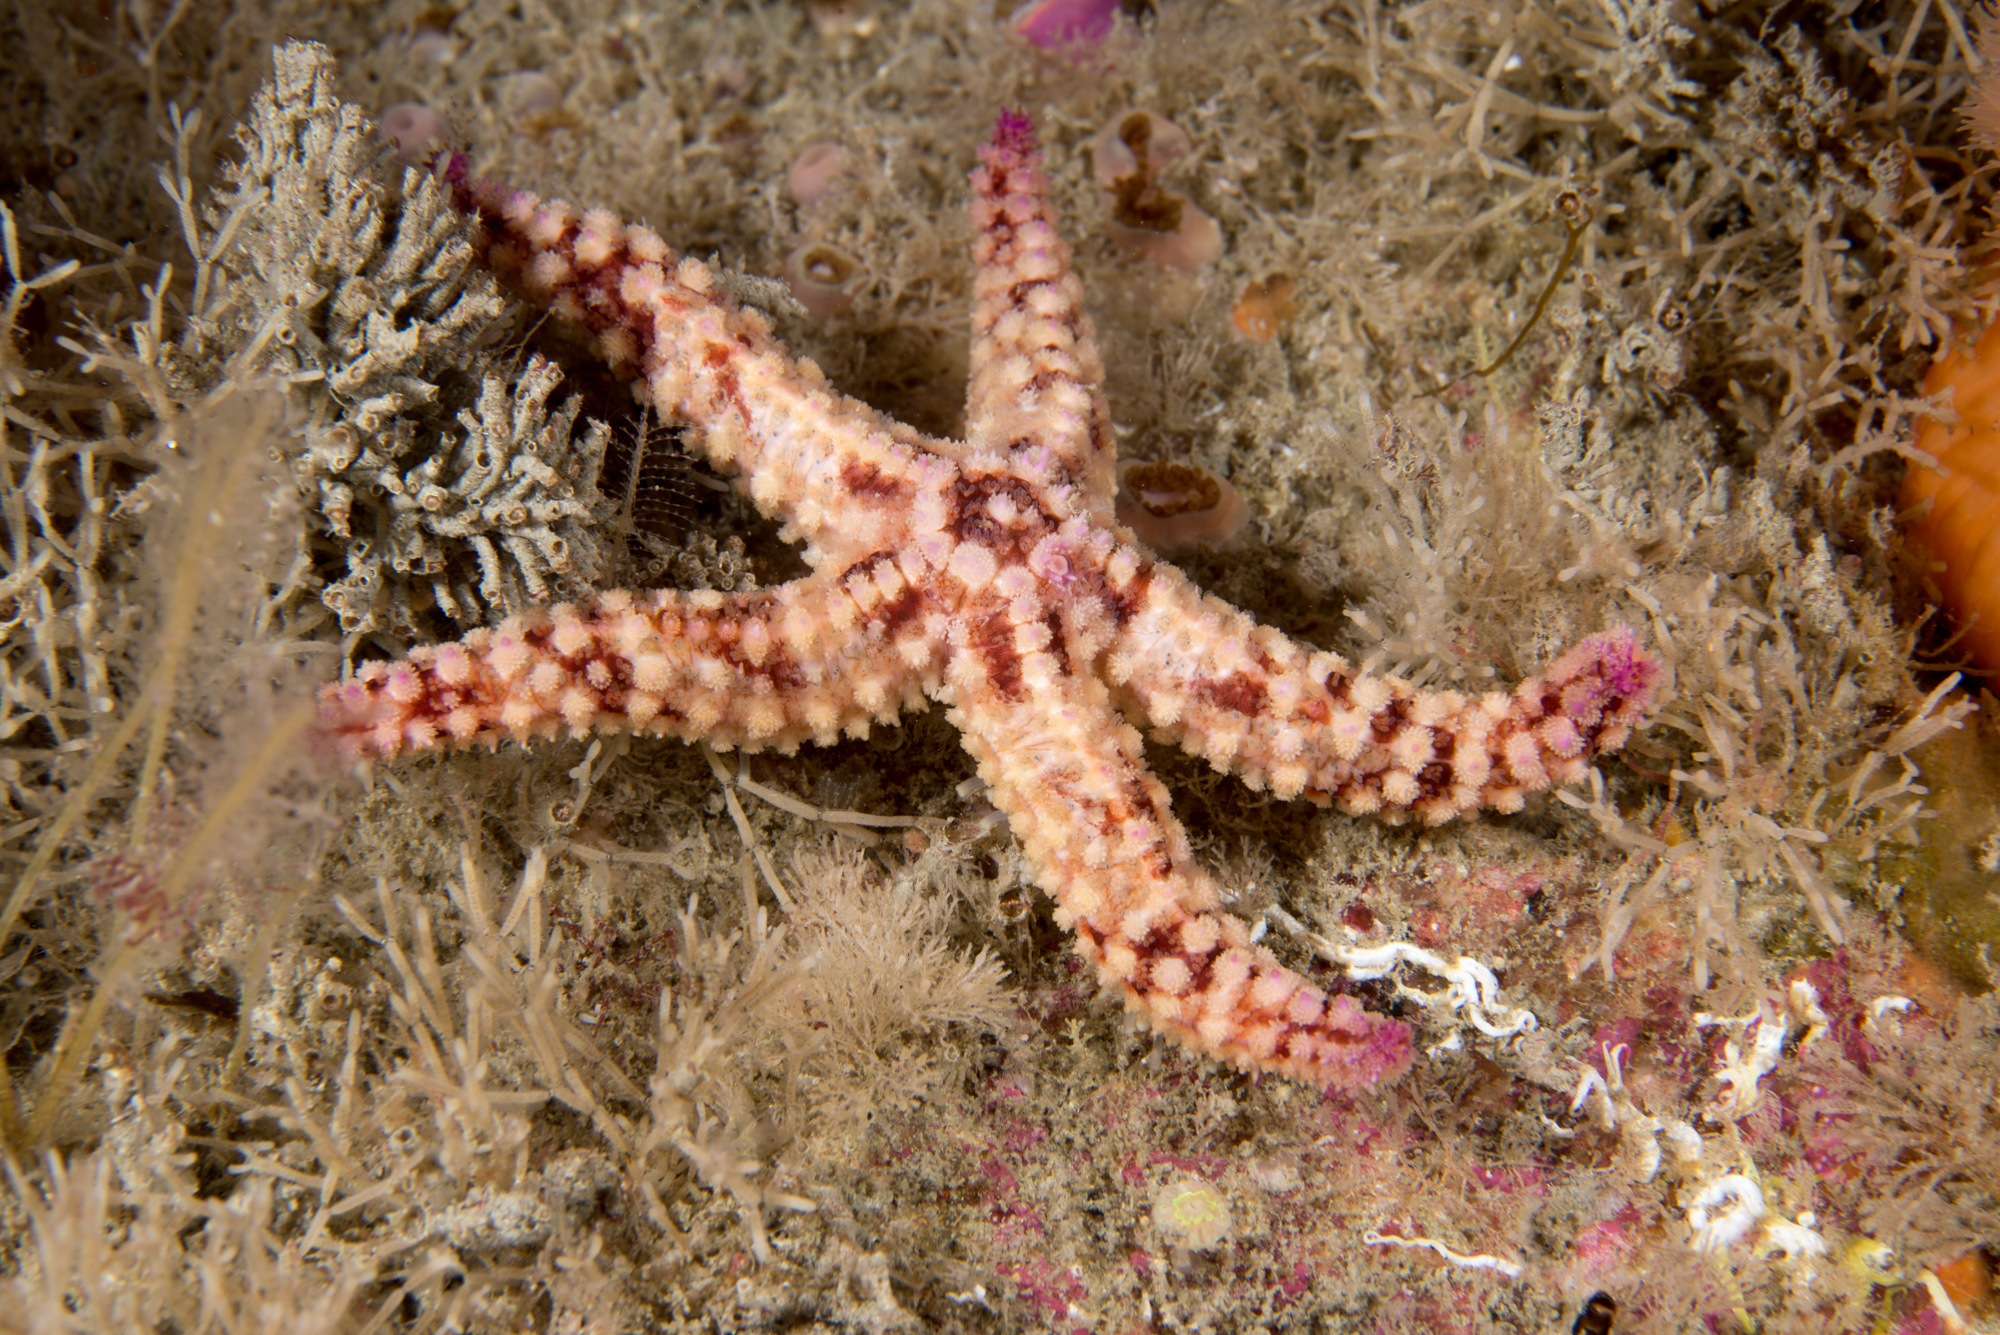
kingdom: Animalia
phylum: Echinodermata
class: Asteroidea
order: Forcipulatida
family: Asteriidae
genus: Marthasterias
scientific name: Marthasterias glacialis
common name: Spiny starfish
